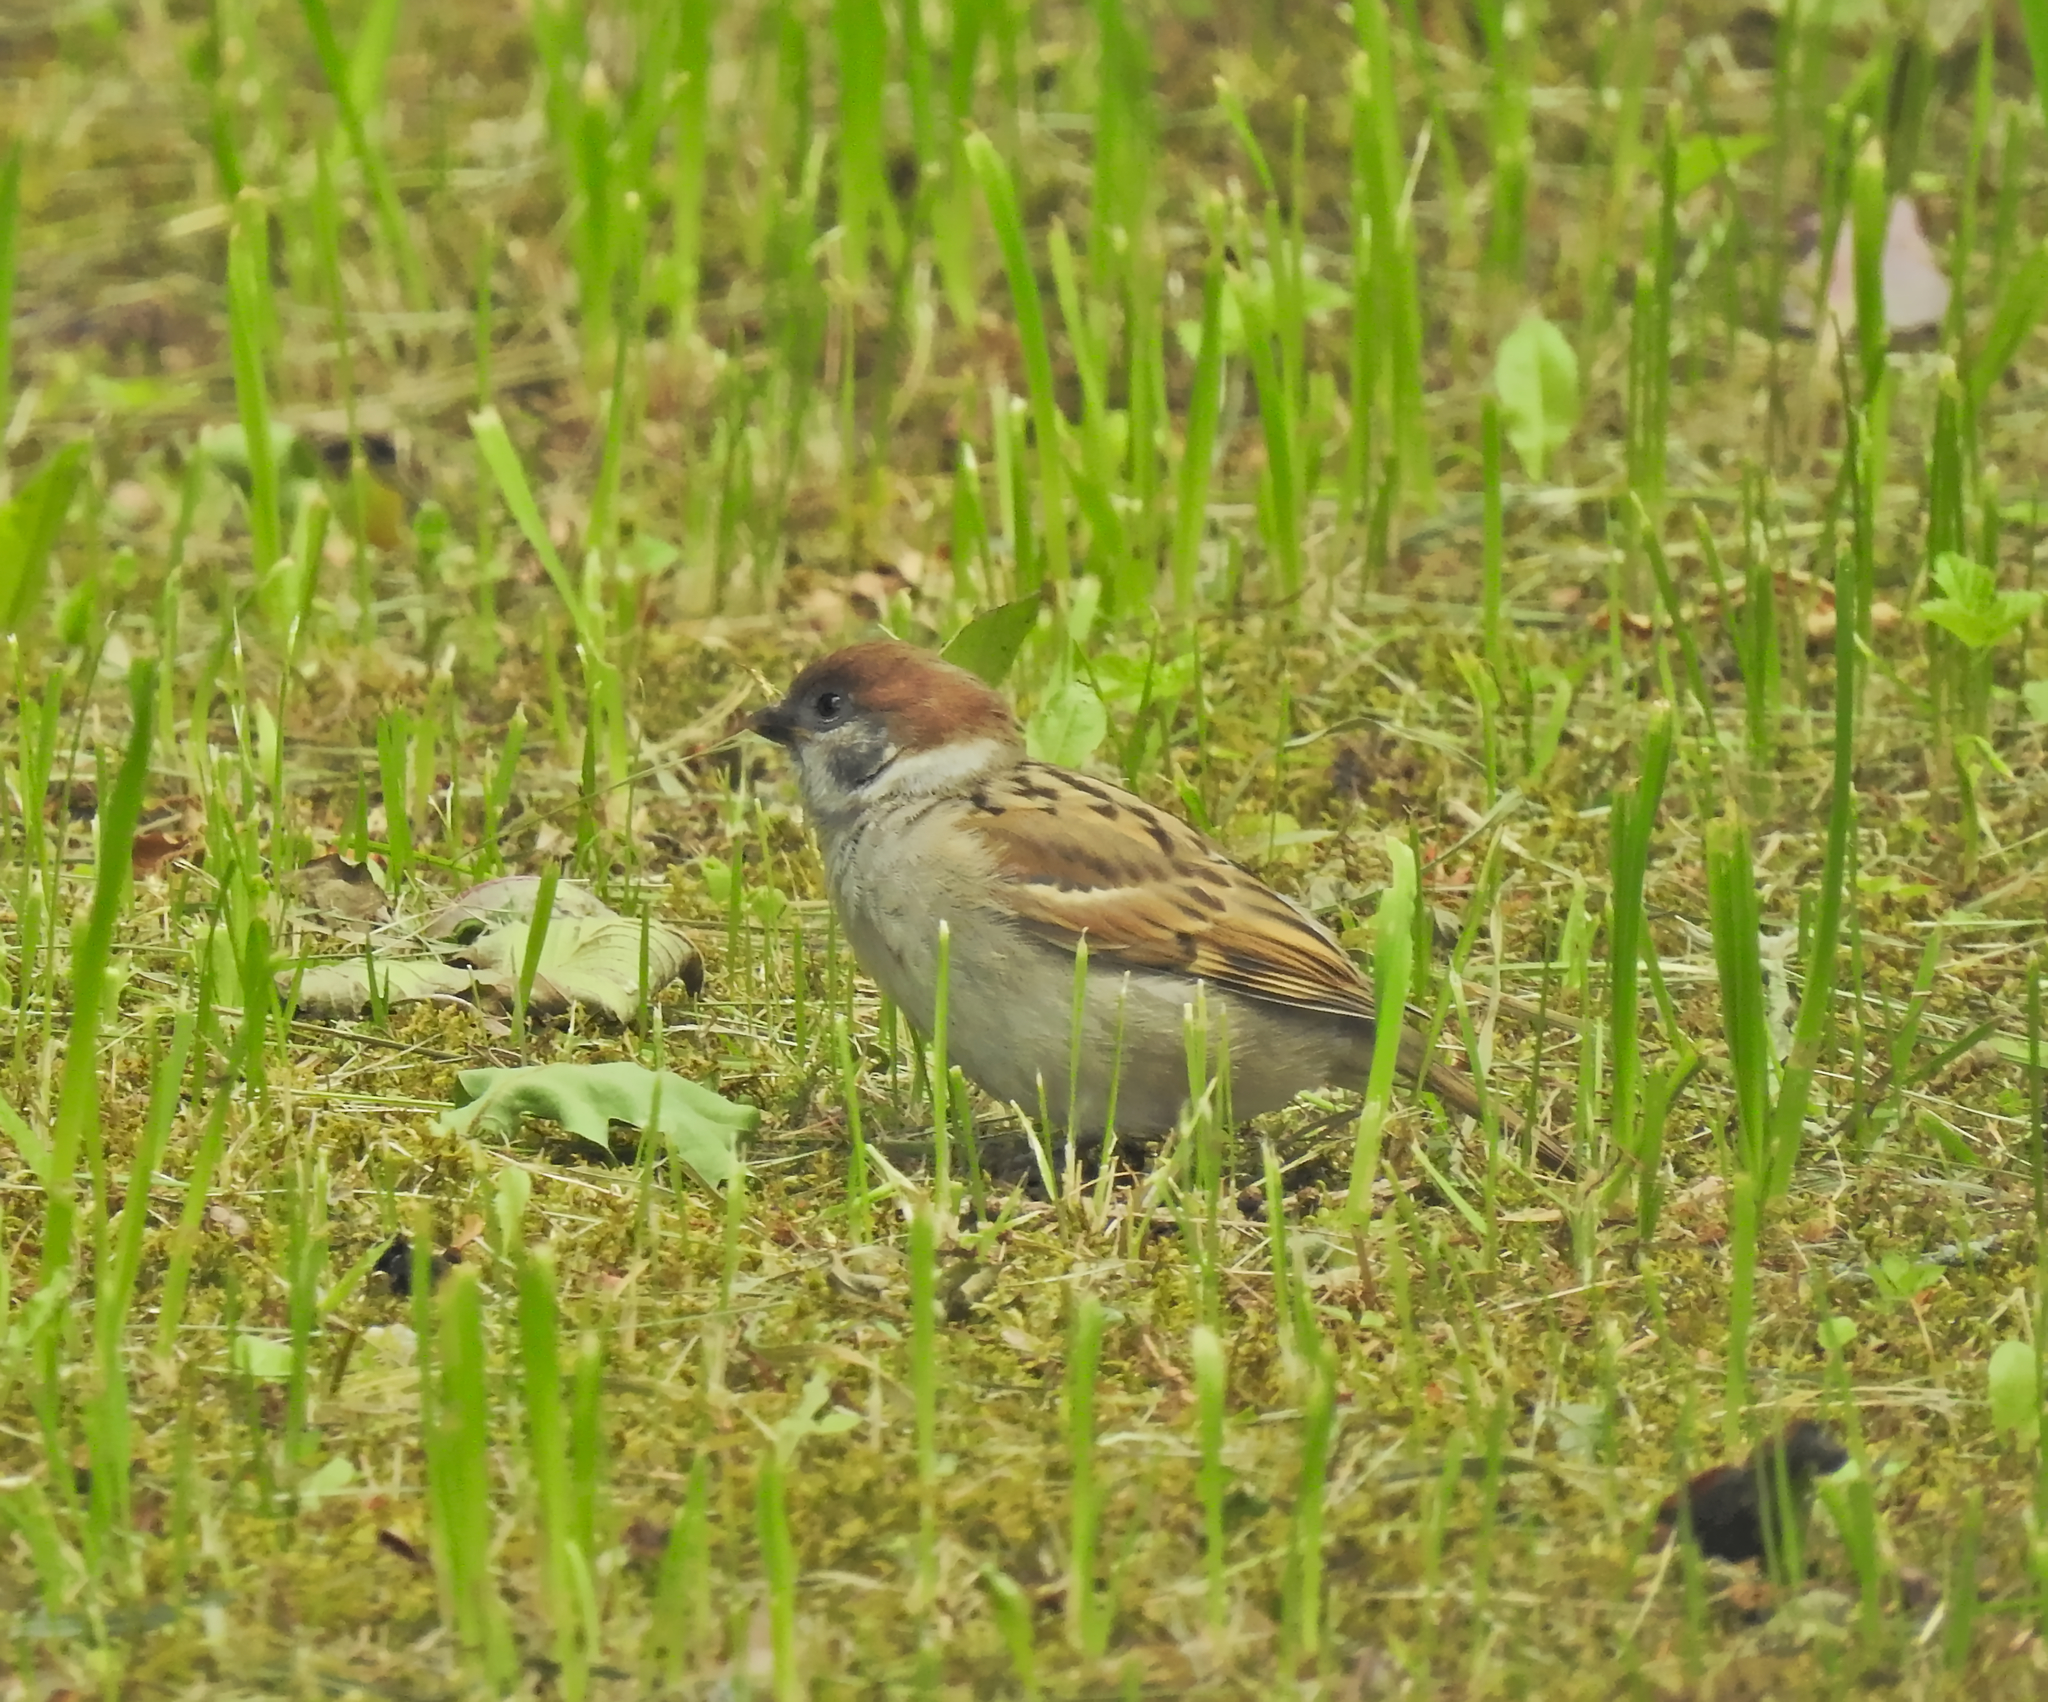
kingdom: Animalia
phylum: Chordata
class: Aves
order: Passeriformes
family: Passeridae
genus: Passer
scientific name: Passer montanus
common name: Eurasian tree sparrow
